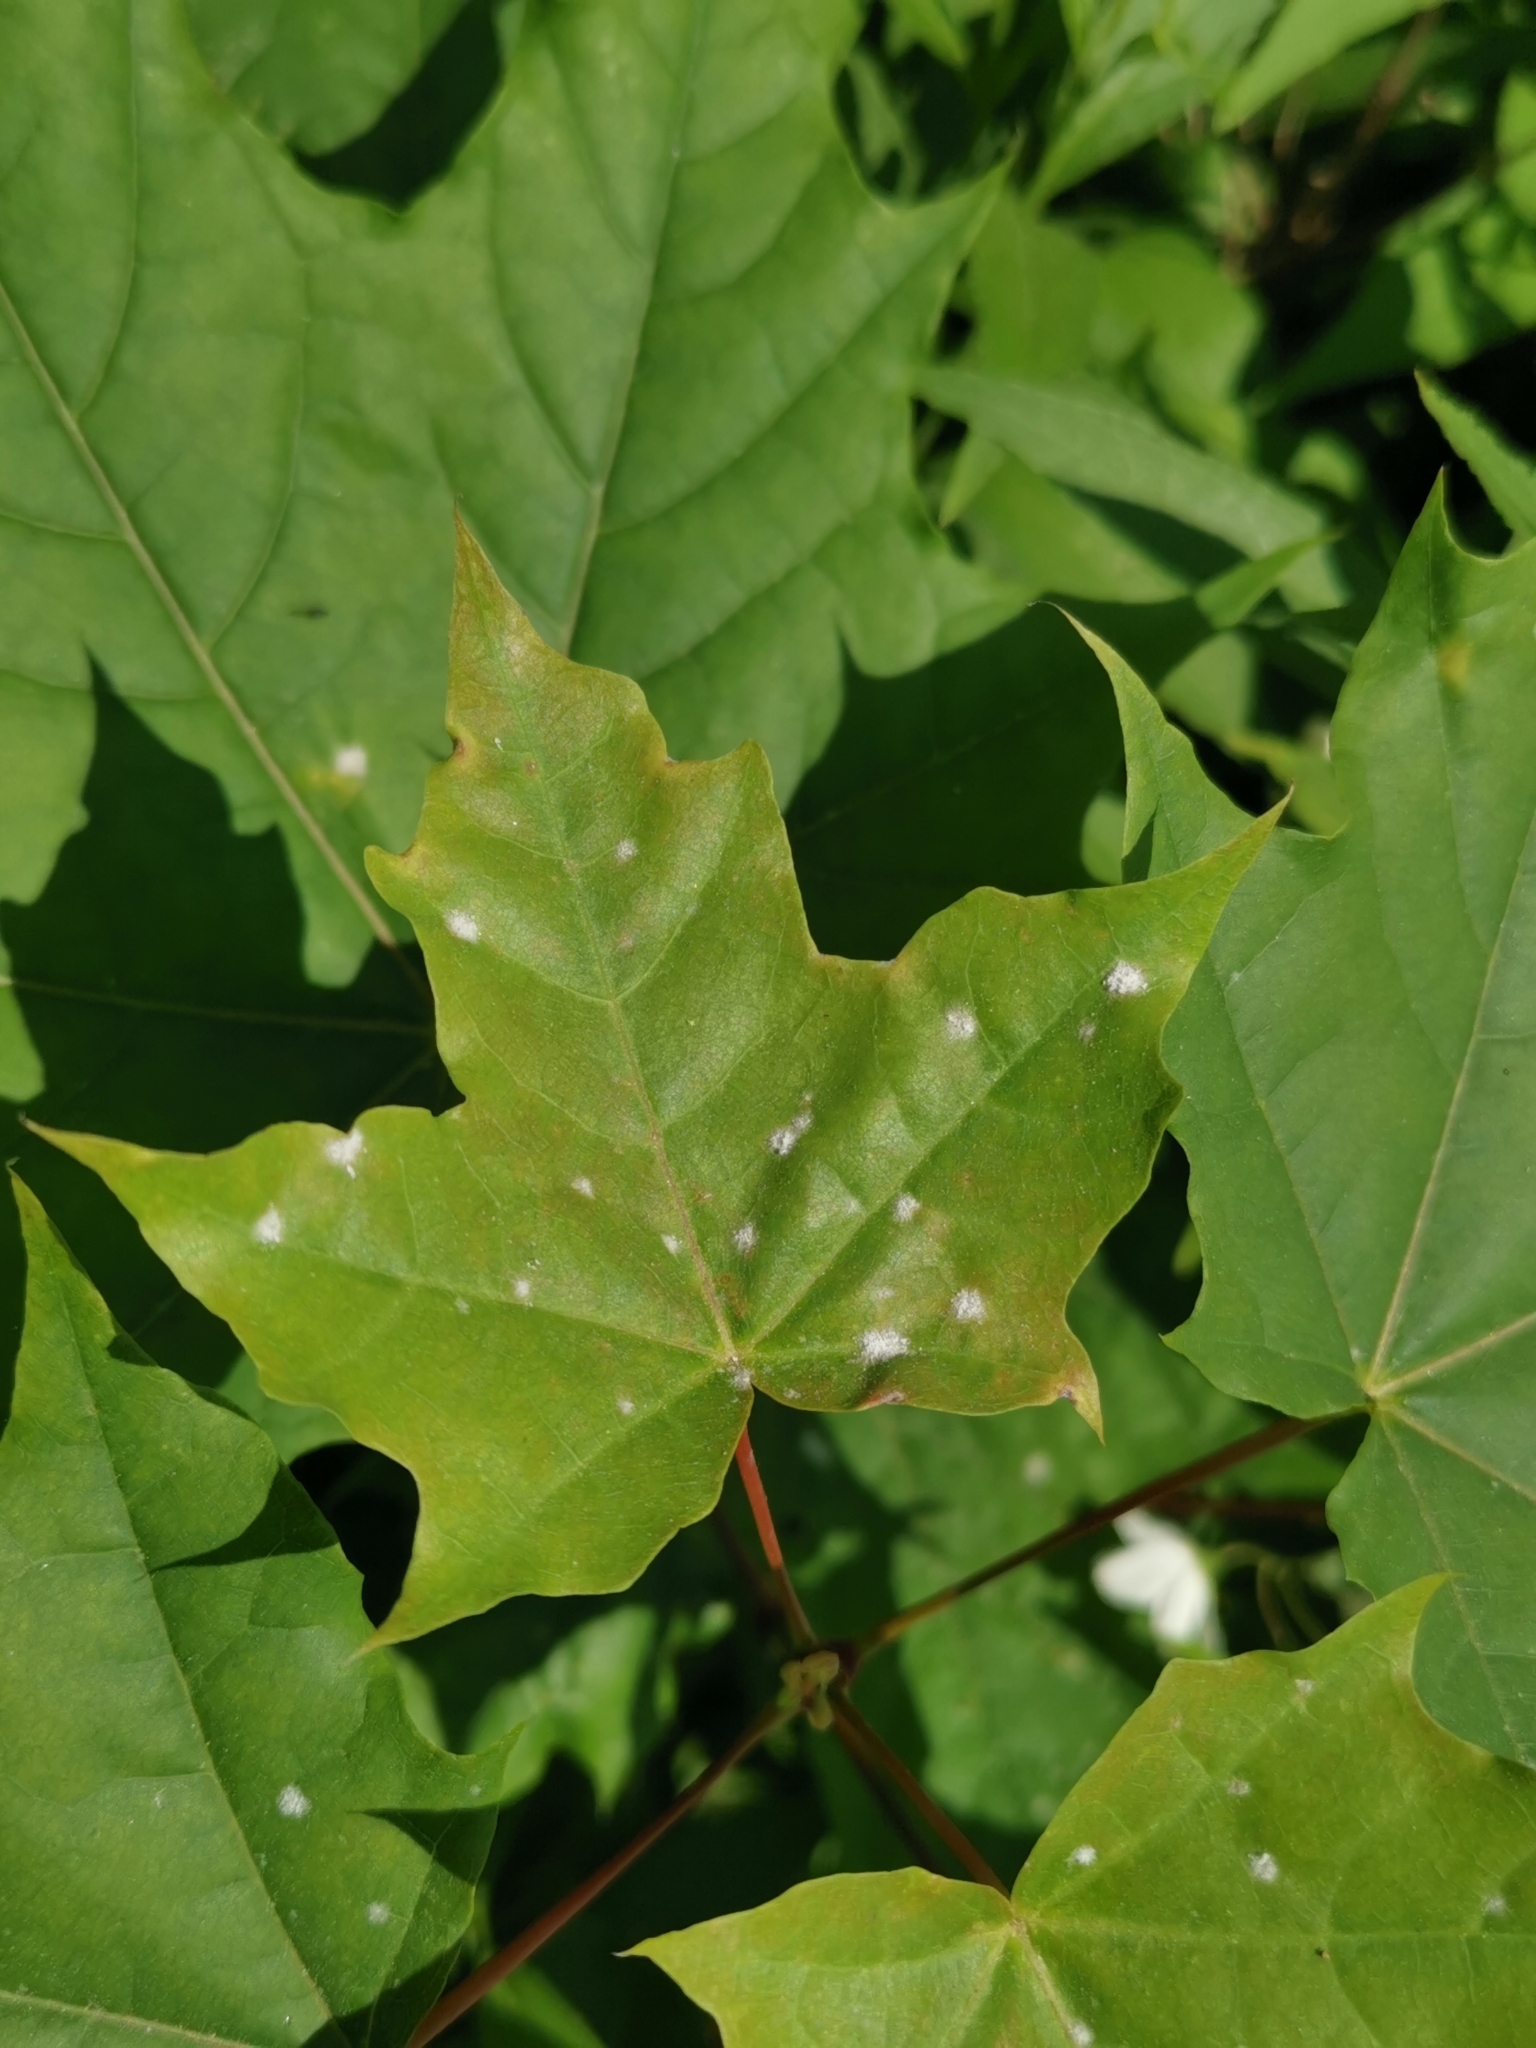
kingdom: Fungi
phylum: Ascomycota
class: Leotiomycetes
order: Helotiales
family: Erysiphaceae
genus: Sawadaea
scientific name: Sawadaea tulasnei
